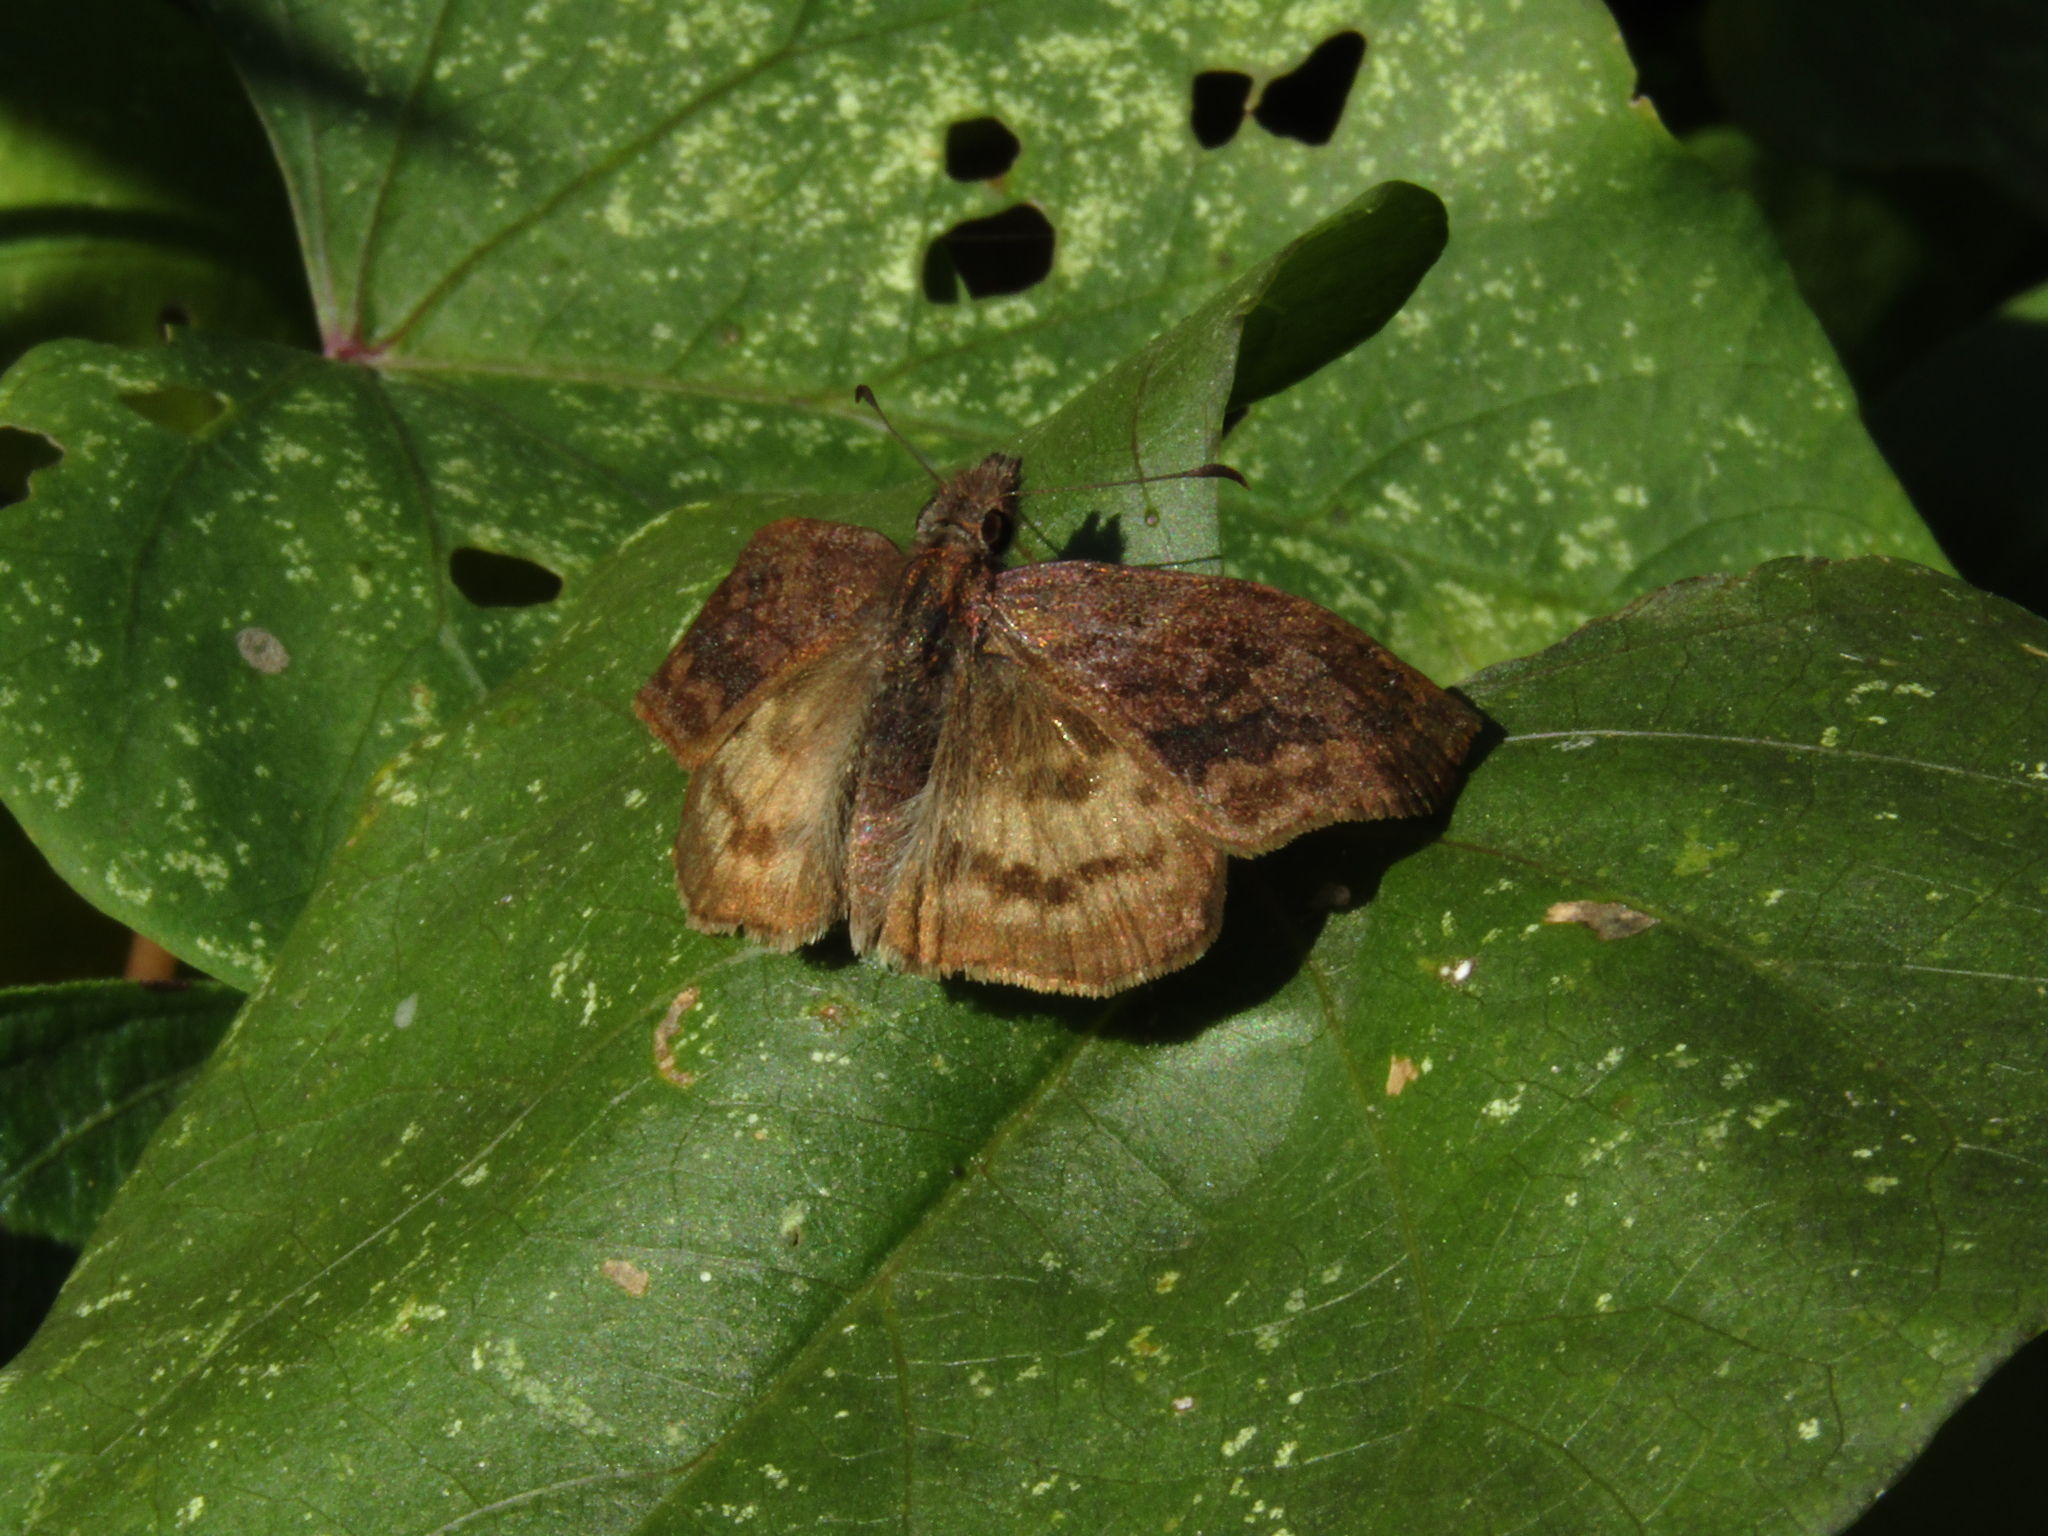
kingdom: Animalia
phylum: Arthropoda
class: Insecta
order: Lepidoptera
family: Hesperiidae
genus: Theagenes
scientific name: Theagenes dichrous
